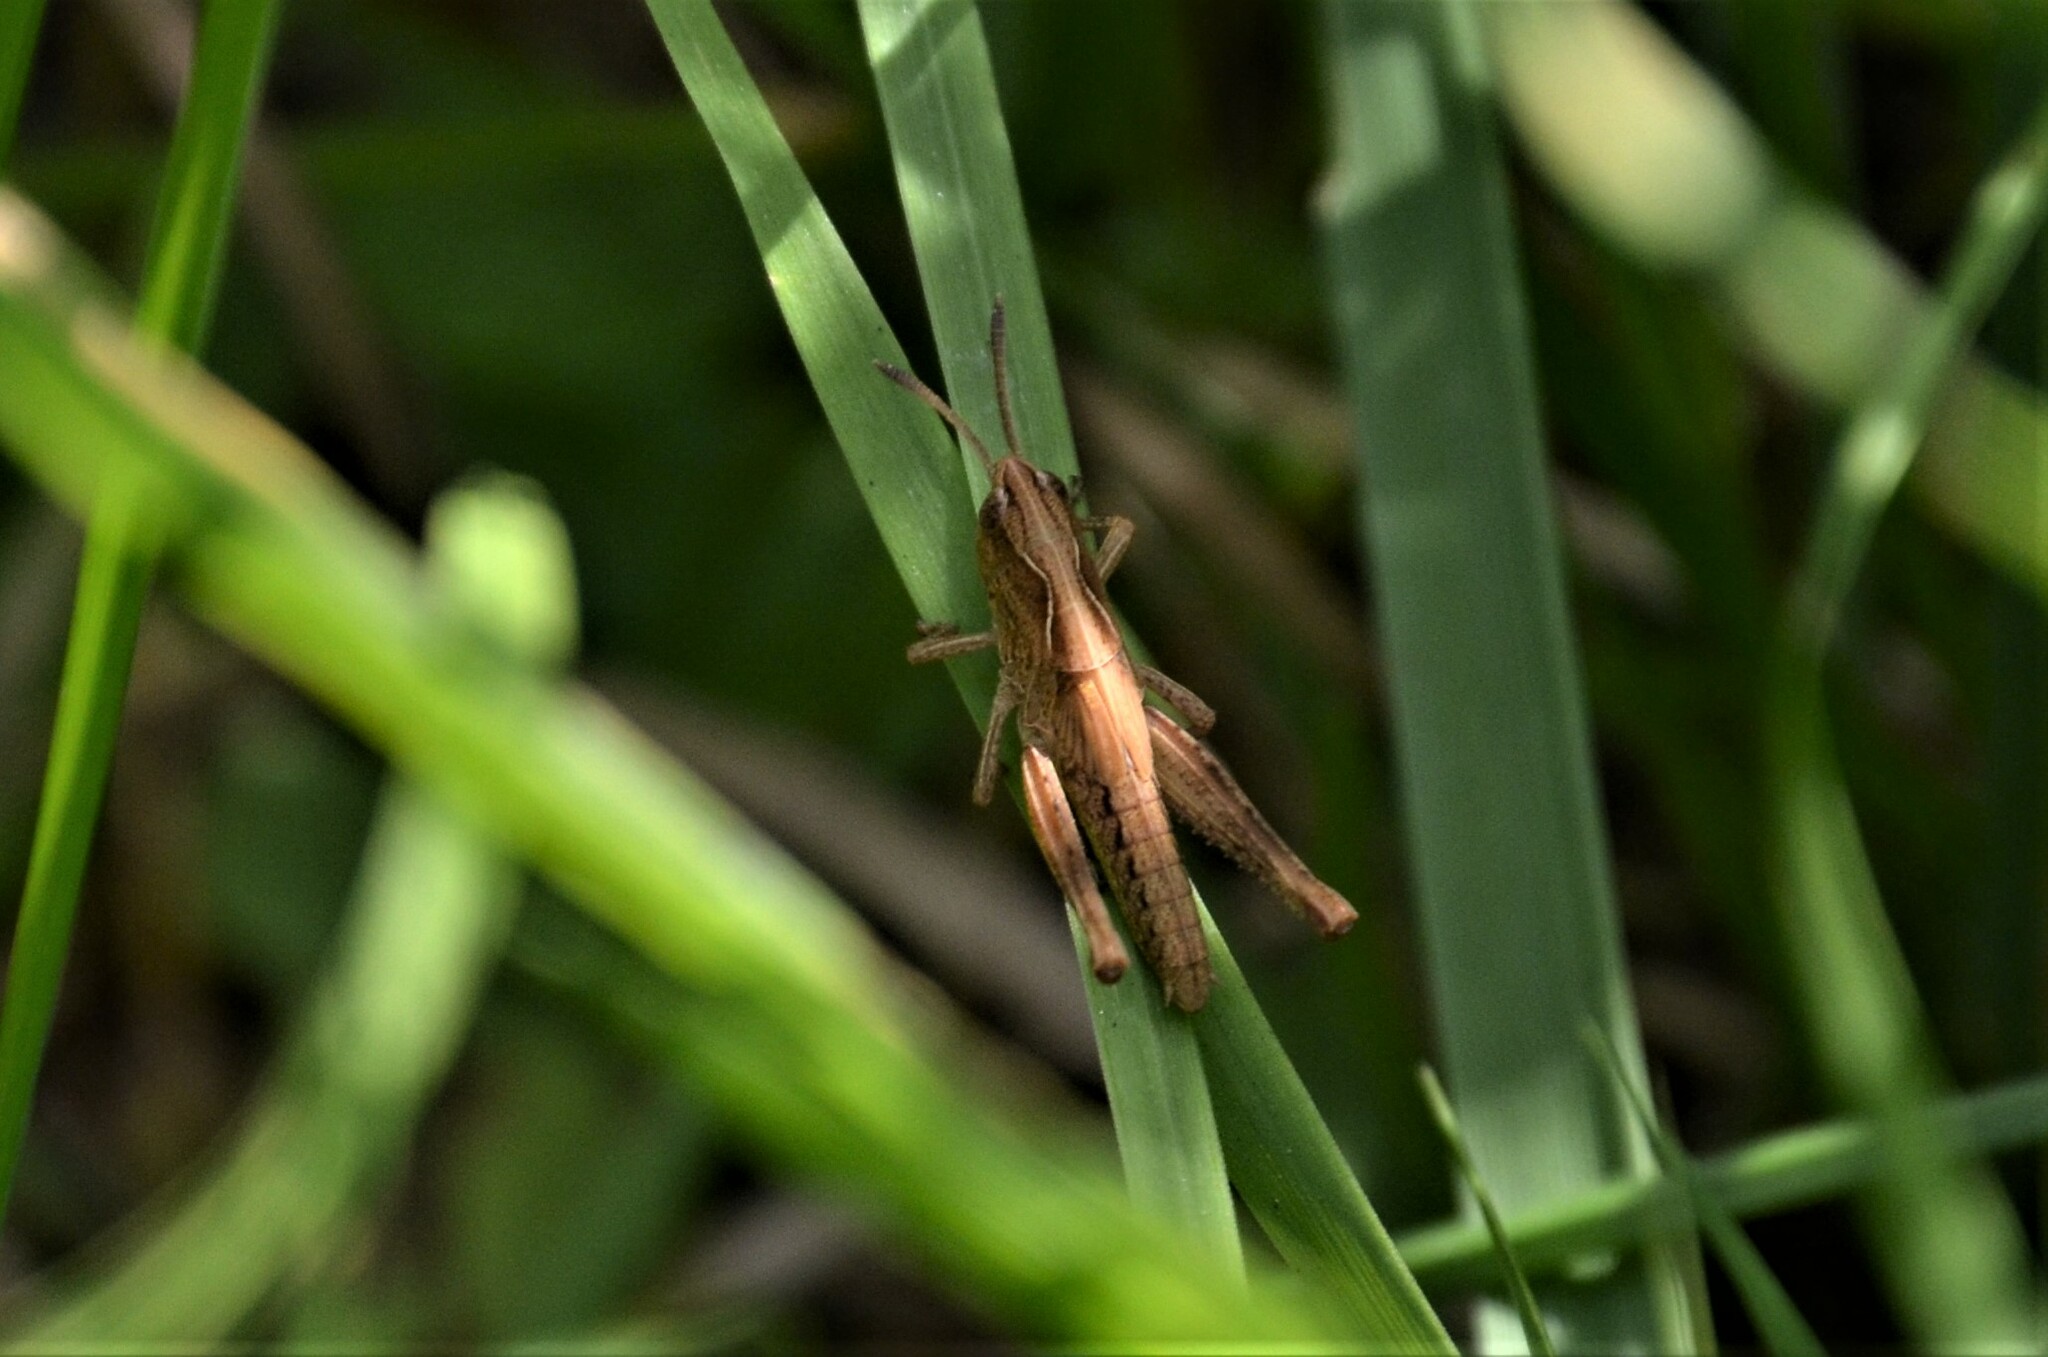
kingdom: Animalia
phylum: Arthropoda
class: Insecta
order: Orthoptera
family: Acrididae
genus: Gomphocerippus
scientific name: Gomphocerippus rufus
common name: Rufous grasshopper
